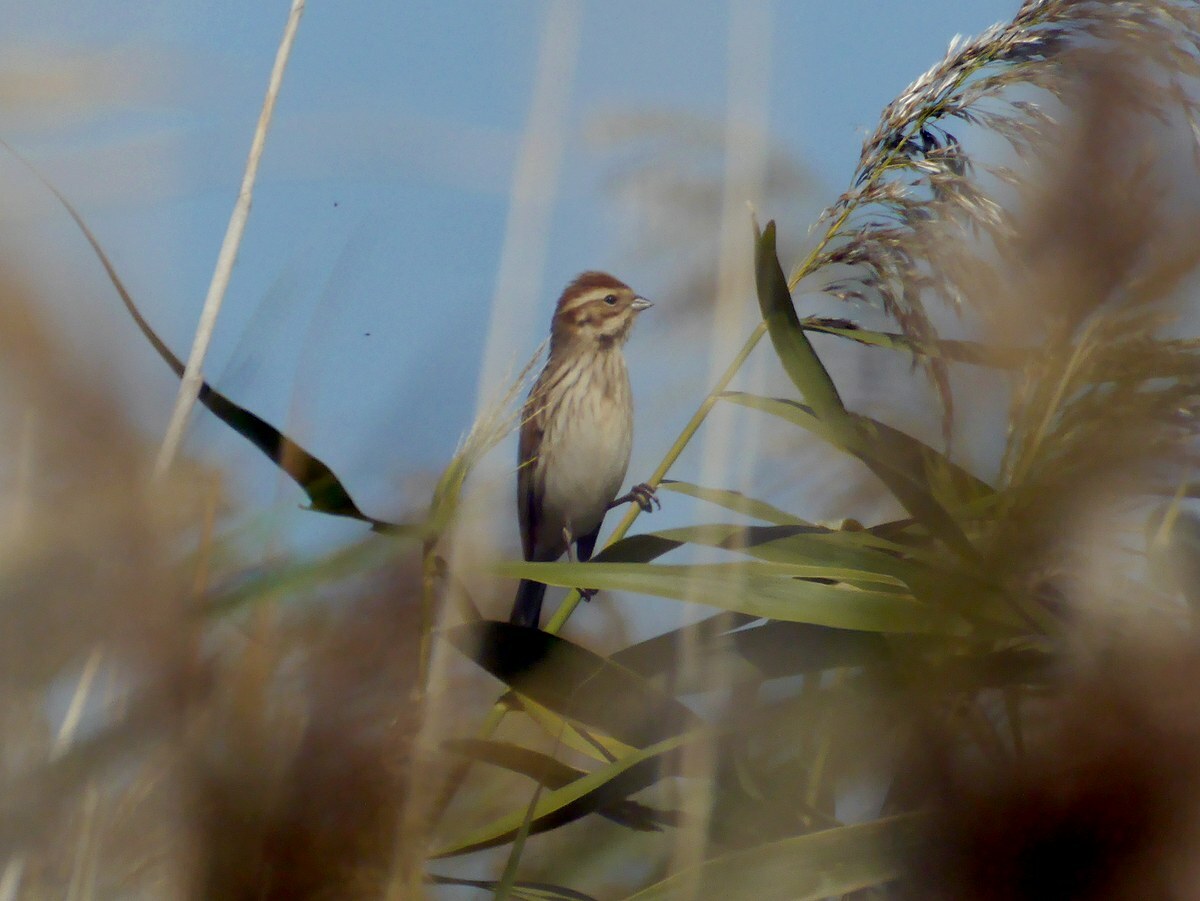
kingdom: Animalia
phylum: Chordata
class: Aves
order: Passeriformes
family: Emberizidae
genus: Emberiza
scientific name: Emberiza schoeniclus
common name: Reed bunting
